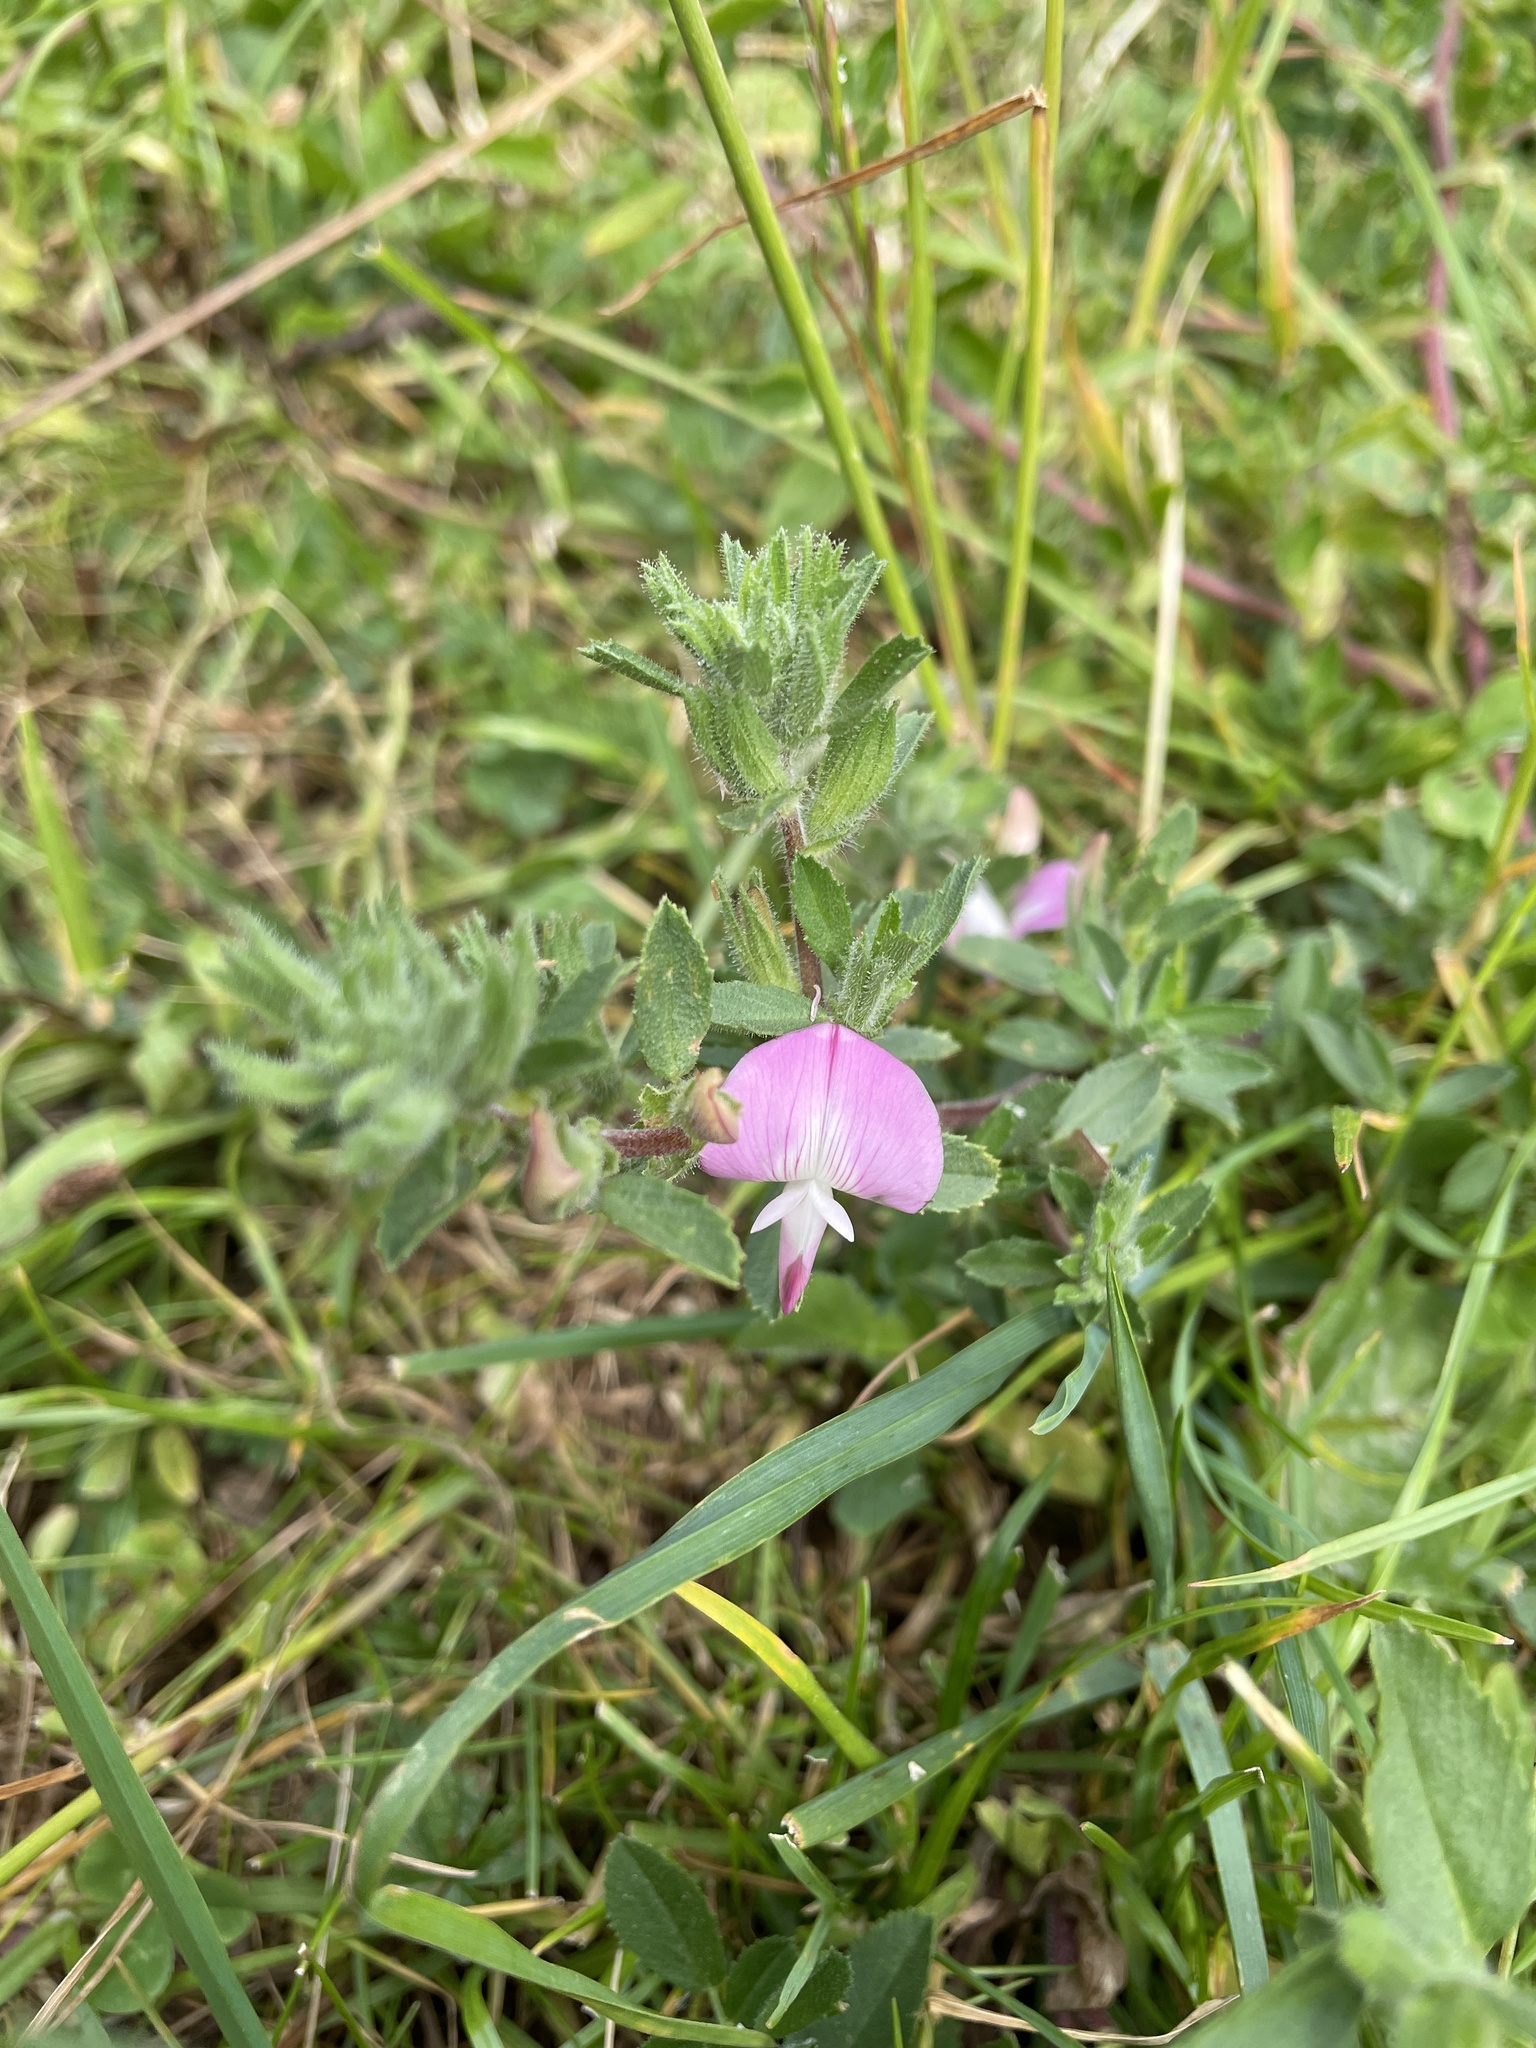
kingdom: Plantae
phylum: Tracheophyta
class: Magnoliopsida
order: Fabales
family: Fabaceae
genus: Ononis
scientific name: Ononis spinosa
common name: Spiny restharrow
